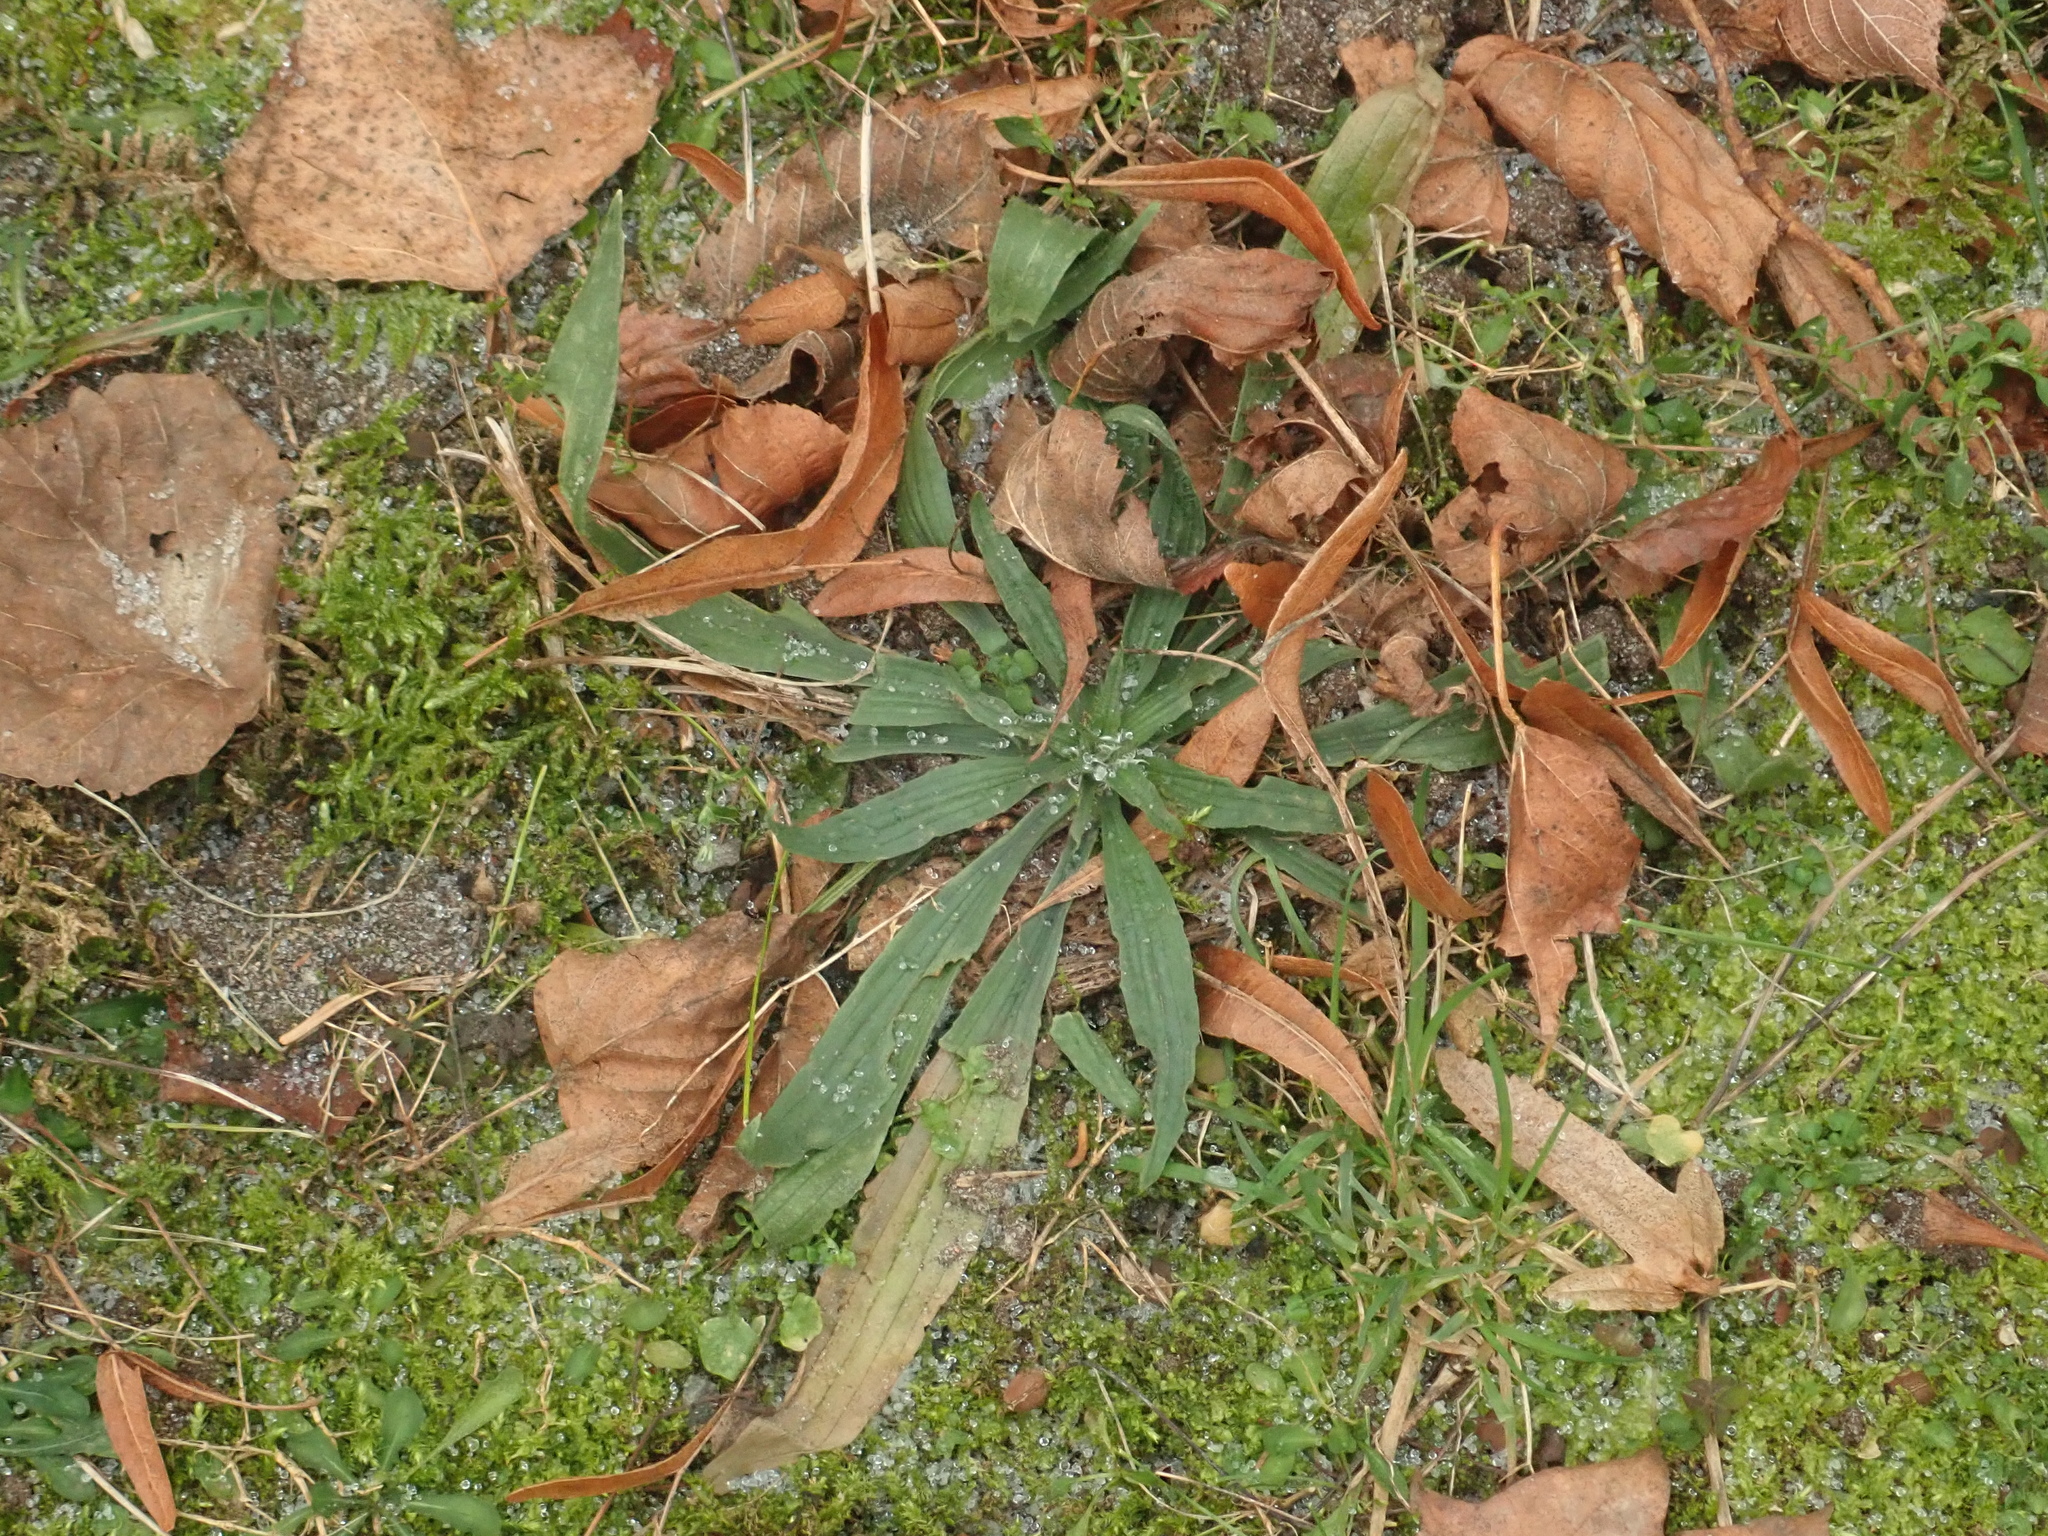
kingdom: Plantae
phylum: Tracheophyta
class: Magnoliopsida
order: Lamiales
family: Plantaginaceae
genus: Plantago
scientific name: Plantago lanceolata
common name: Ribwort plantain
